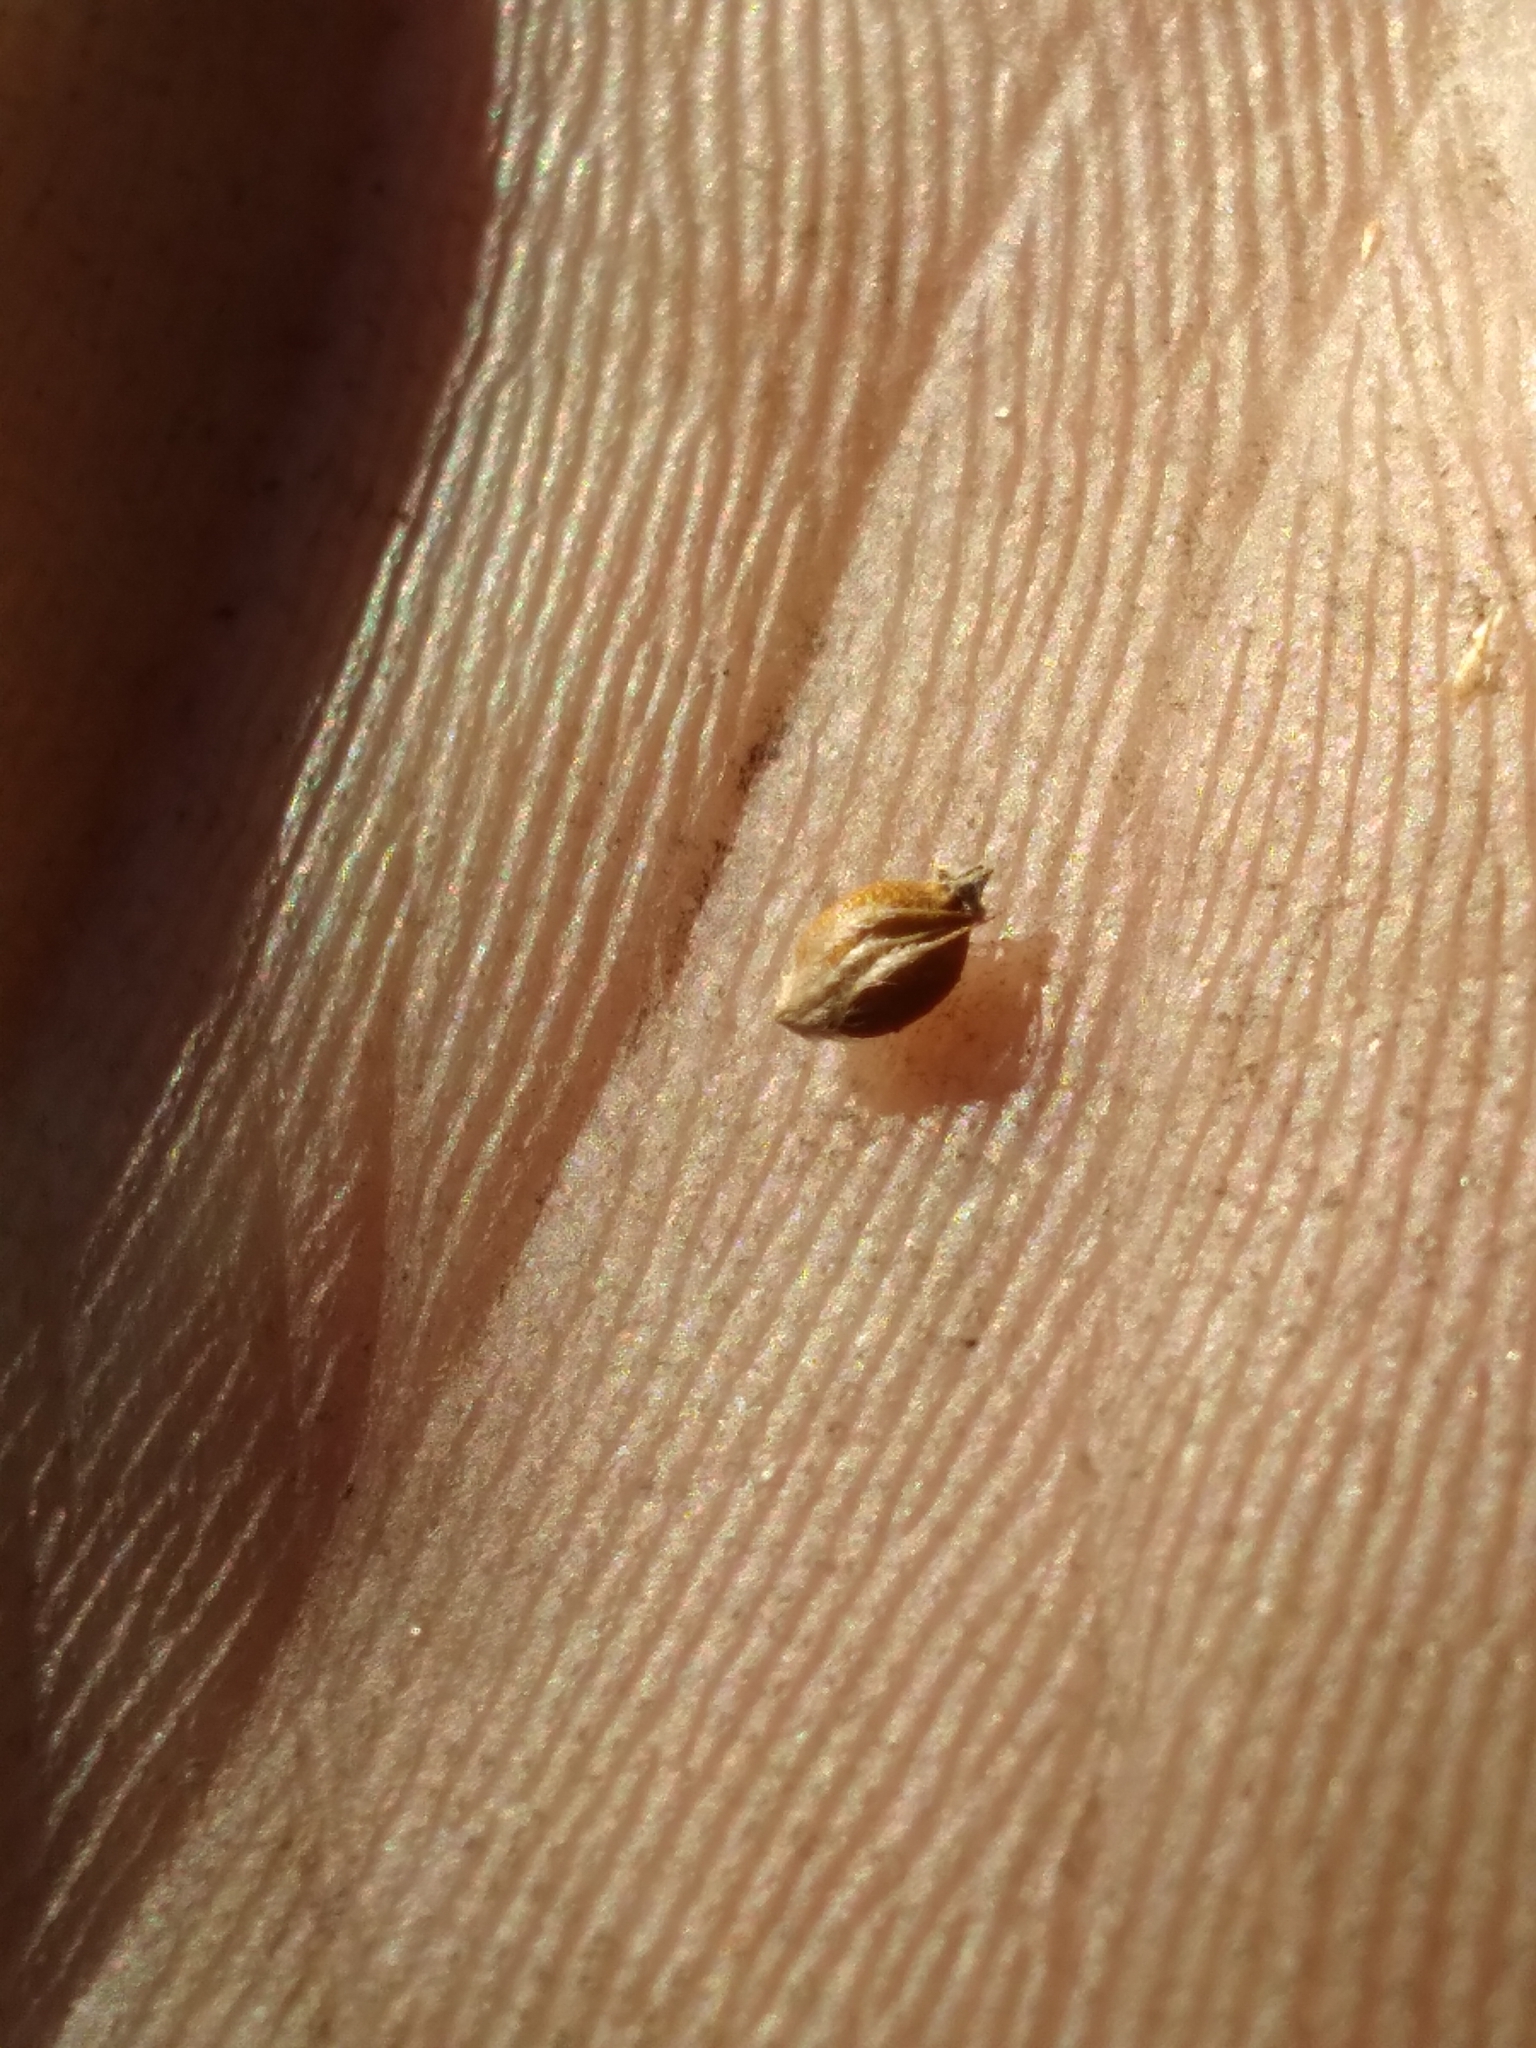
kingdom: Plantae
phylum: Tracheophyta
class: Liliopsida
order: Poales
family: Cyperaceae
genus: Rhynchospora
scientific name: Rhynchospora oligantha
